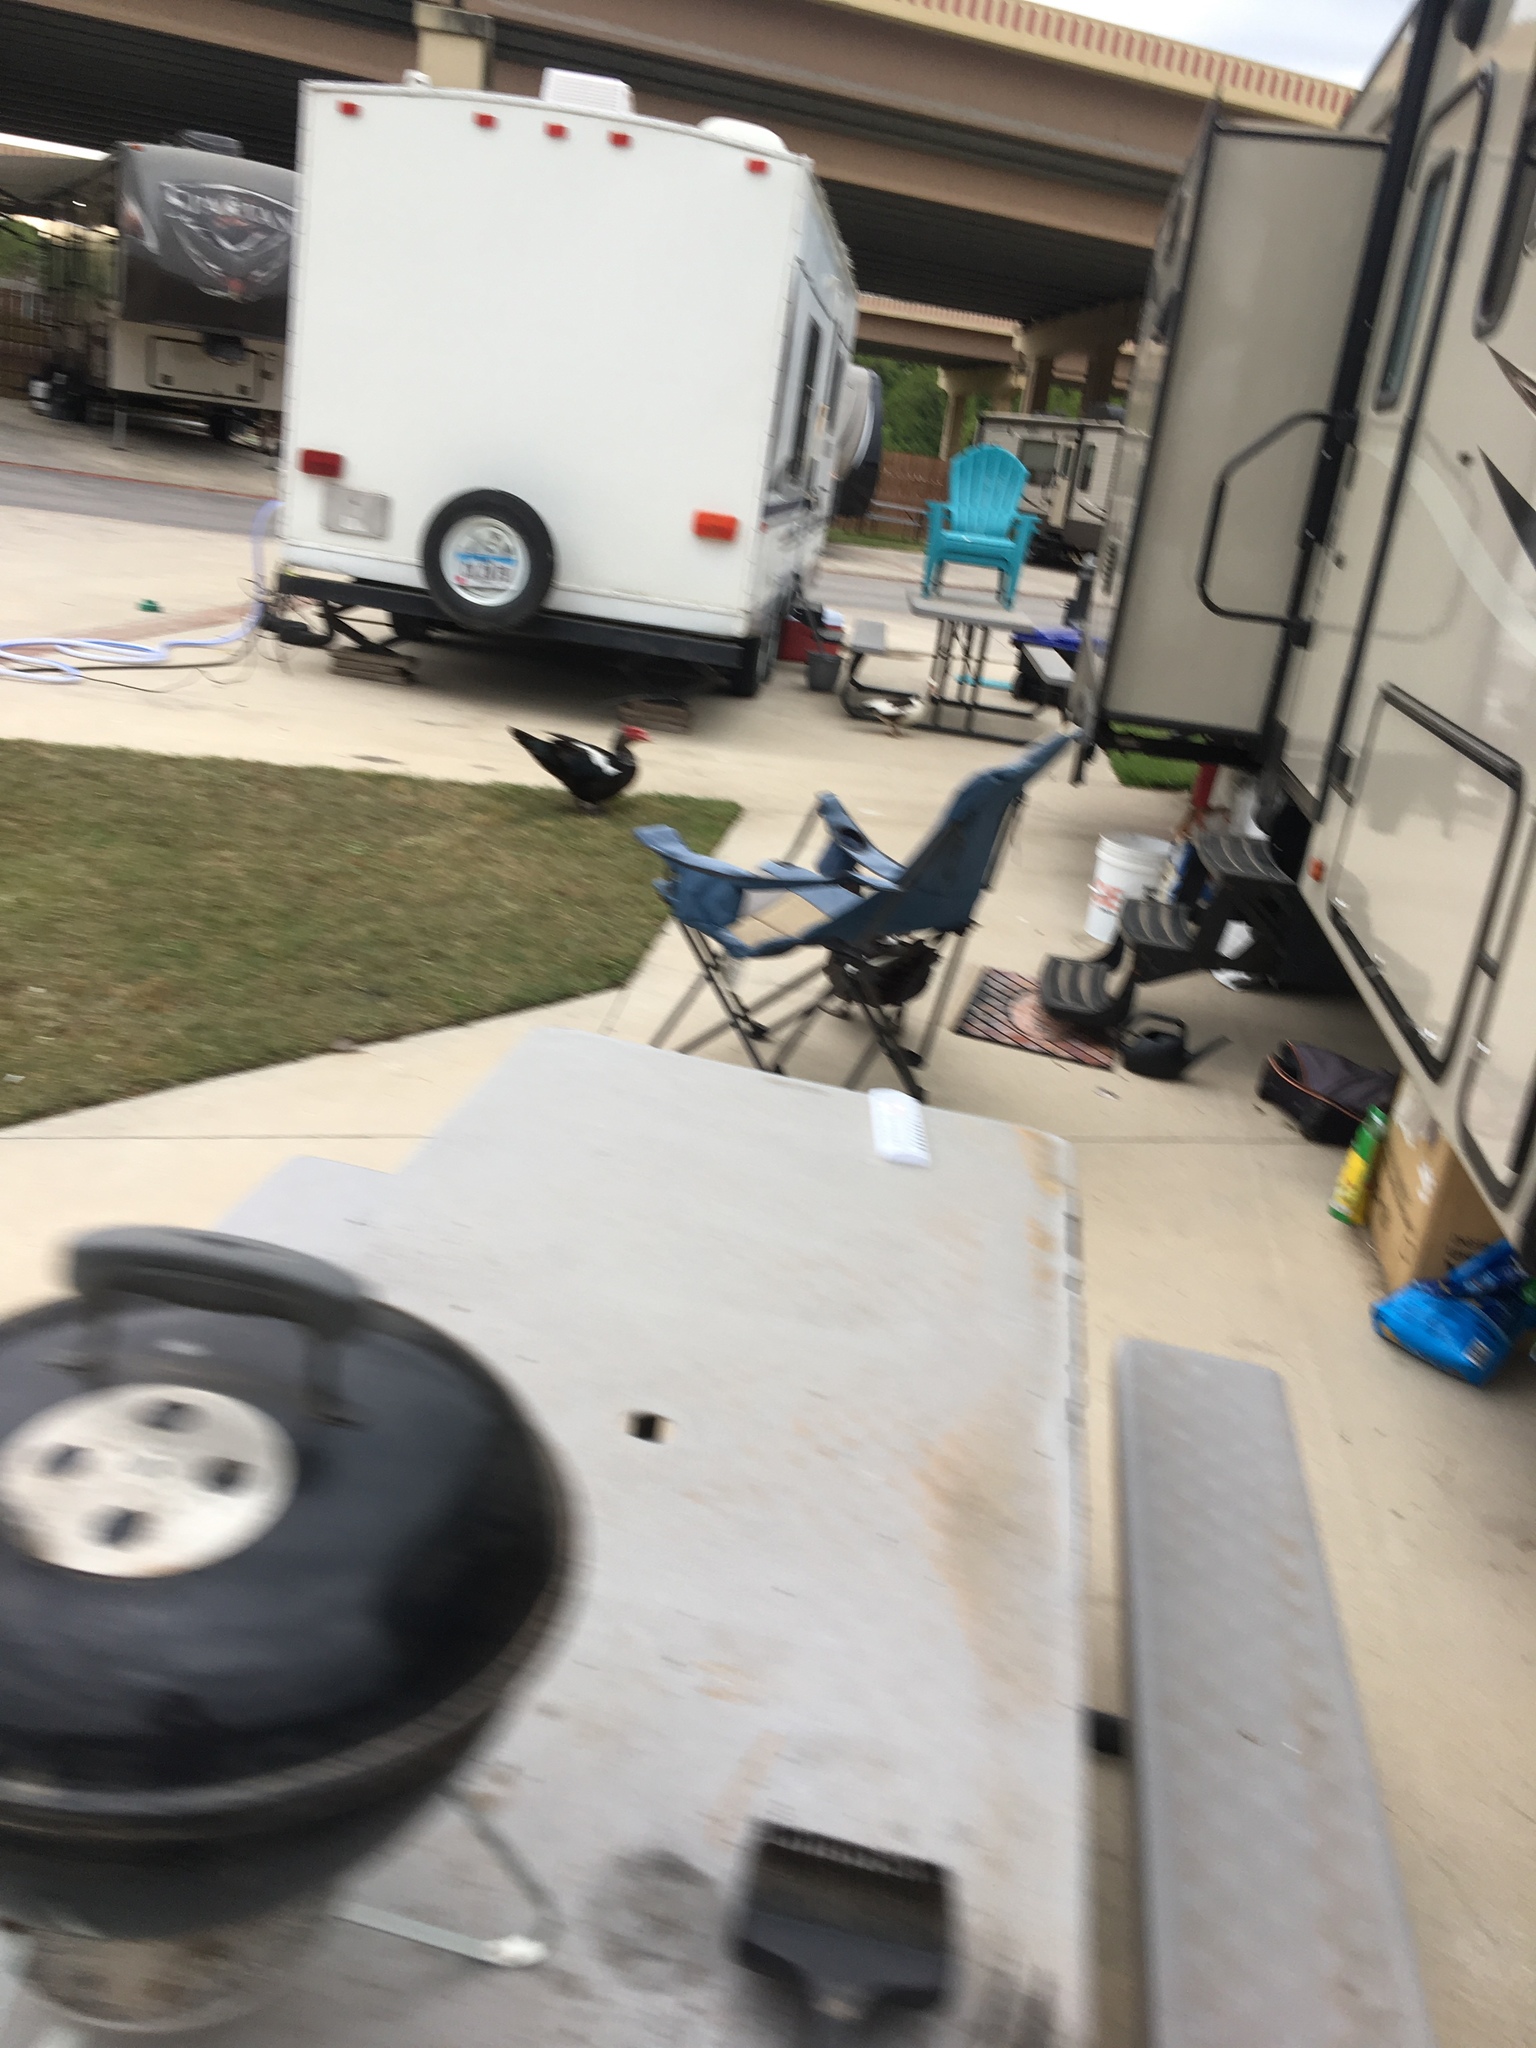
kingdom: Animalia
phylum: Chordata
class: Aves
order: Anseriformes
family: Anatidae
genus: Cairina
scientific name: Cairina moschata
